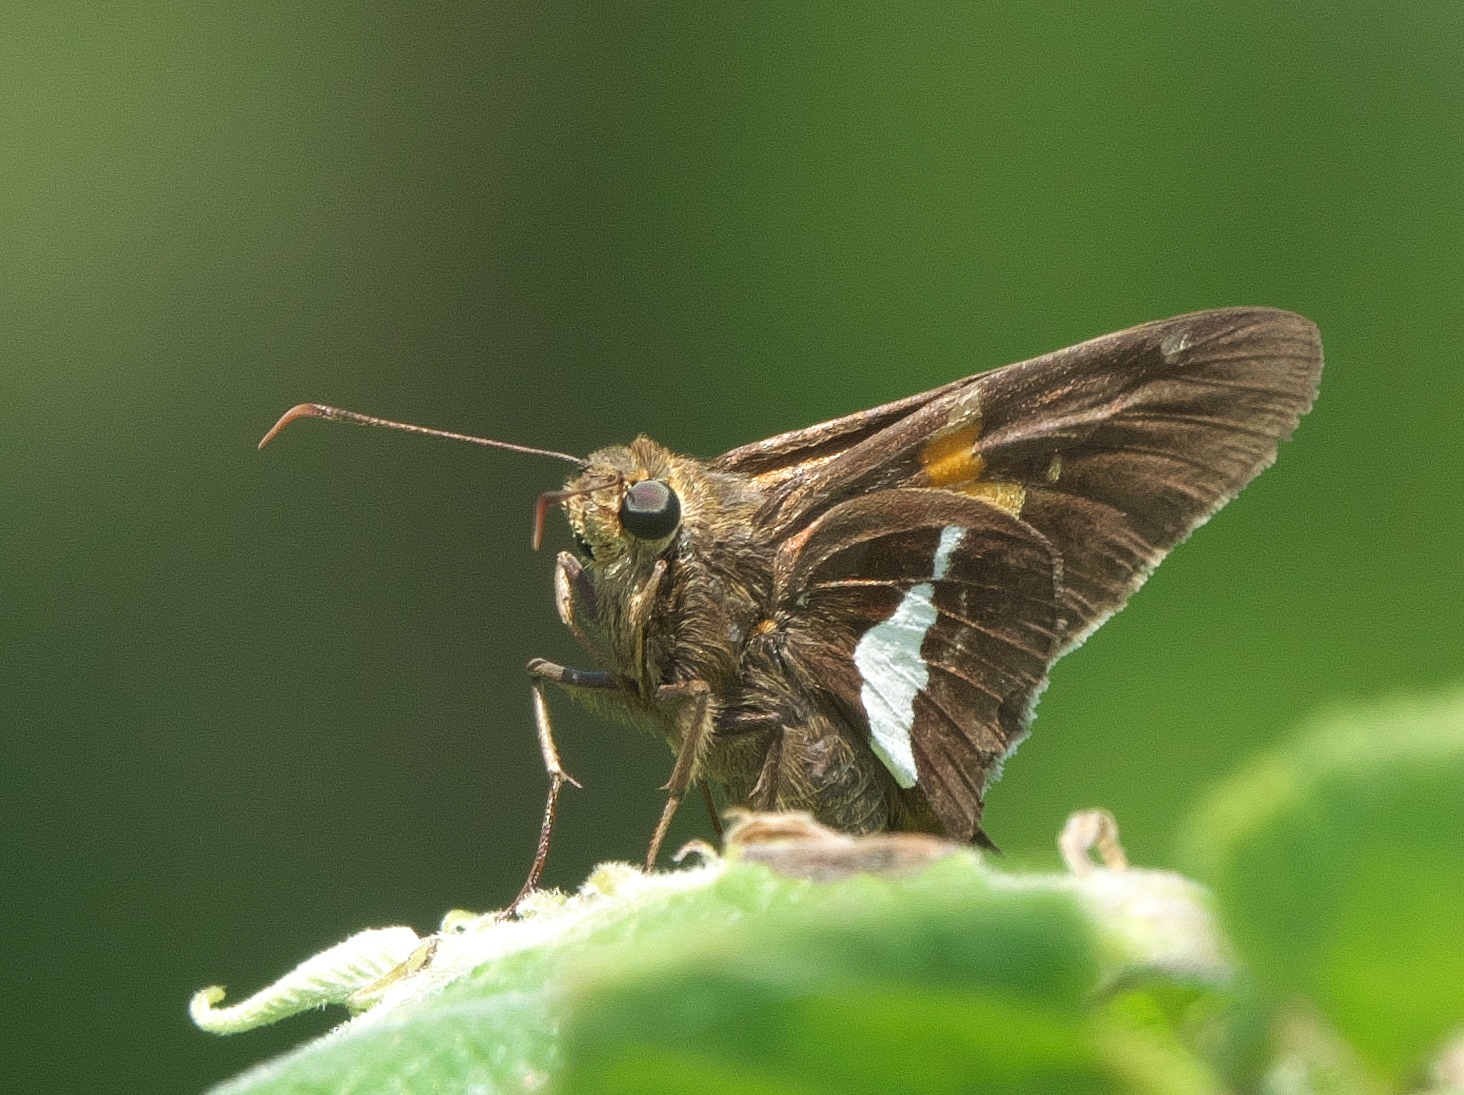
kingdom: Animalia
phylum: Arthropoda
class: Insecta
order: Lepidoptera
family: Hesperiidae
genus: Epargyreus
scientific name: Epargyreus clarus
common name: Silver-spotted skipper
